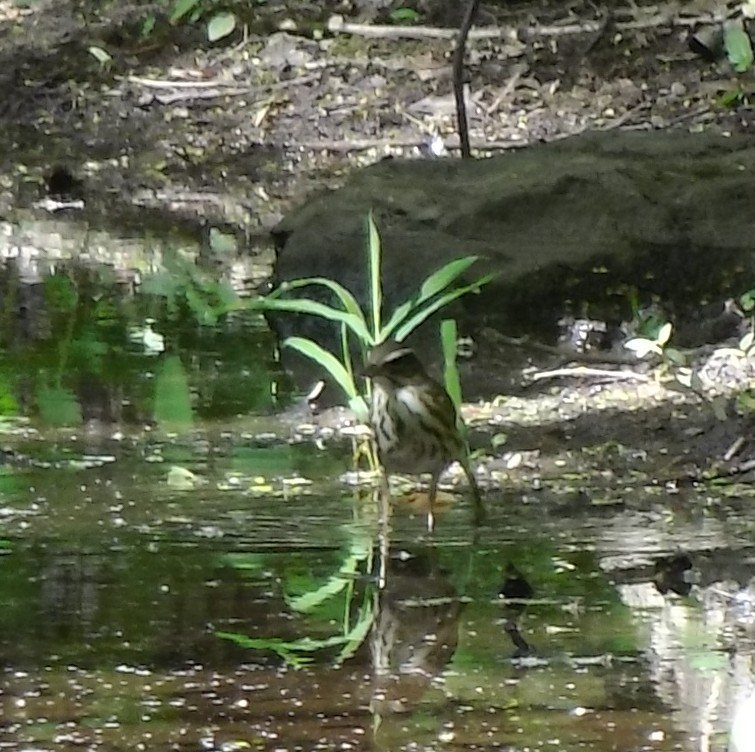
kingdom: Animalia
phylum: Chordata
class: Aves
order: Passeriformes
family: Parulidae
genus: Parkesia
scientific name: Parkesia motacilla
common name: Louisiana waterthrush
